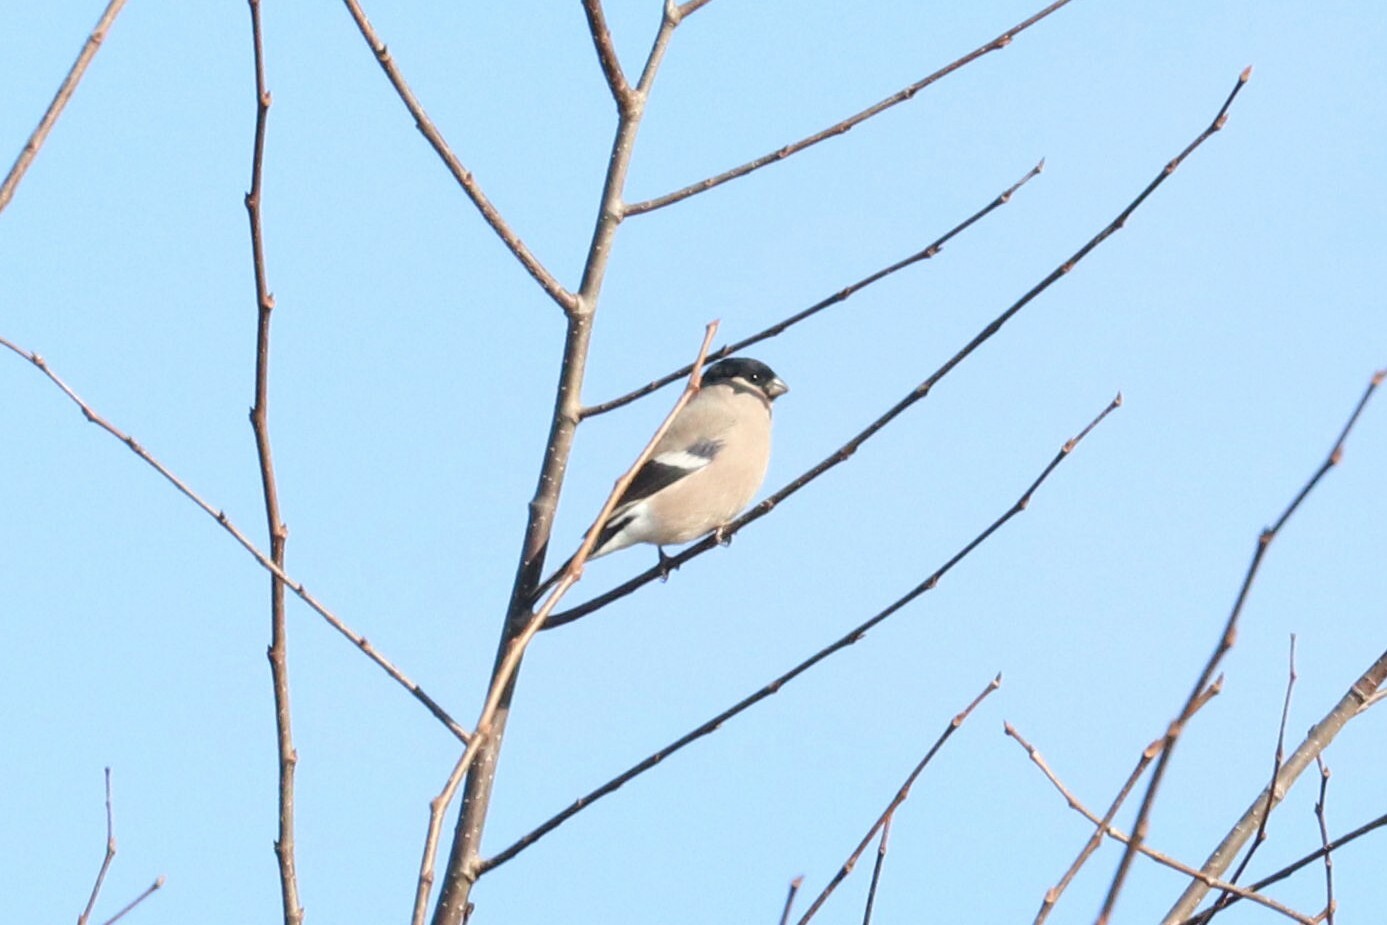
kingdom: Animalia
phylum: Chordata
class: Aves
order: Passeriformes
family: Fringillidae
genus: Pyrrhula
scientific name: Pyrrhula pyrrhula
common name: Eurasian bullfinch
